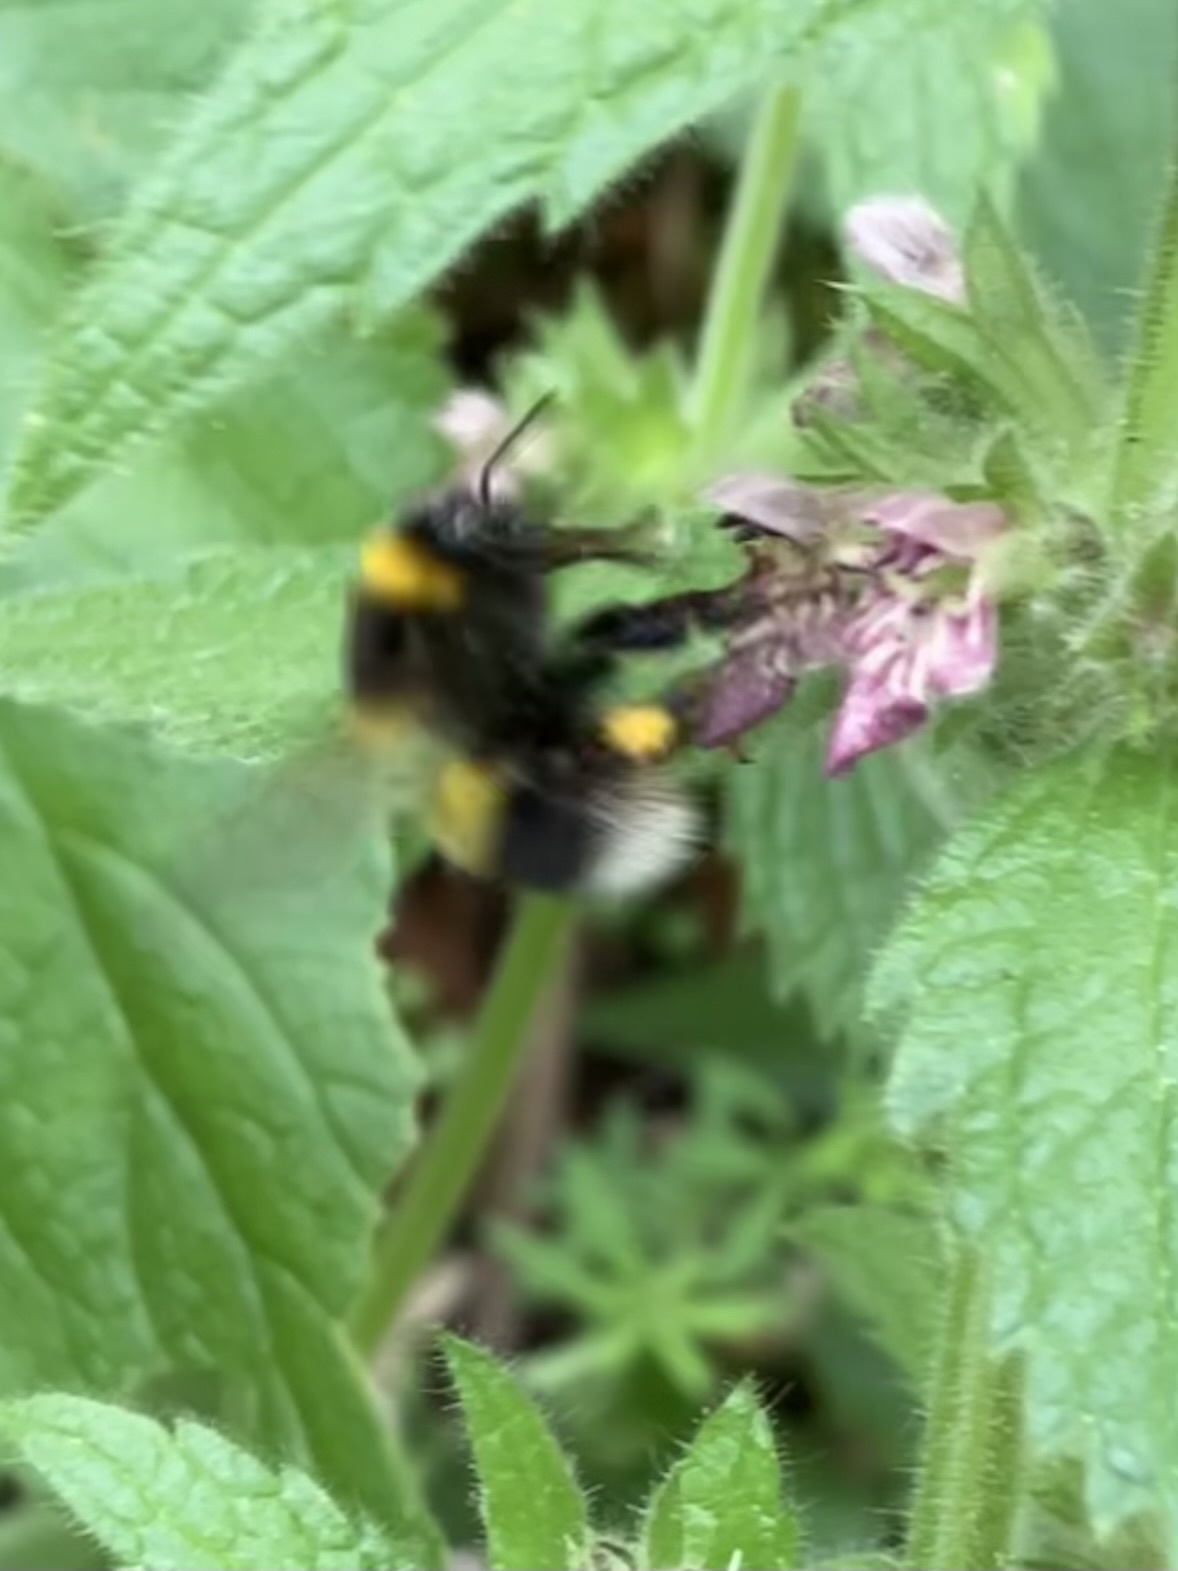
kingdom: Animalia
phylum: Arthropoda
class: Insecta
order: Hymenoptera
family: Apidae
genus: Bombus
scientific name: Bombus hortorum
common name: Garden bumblebee
